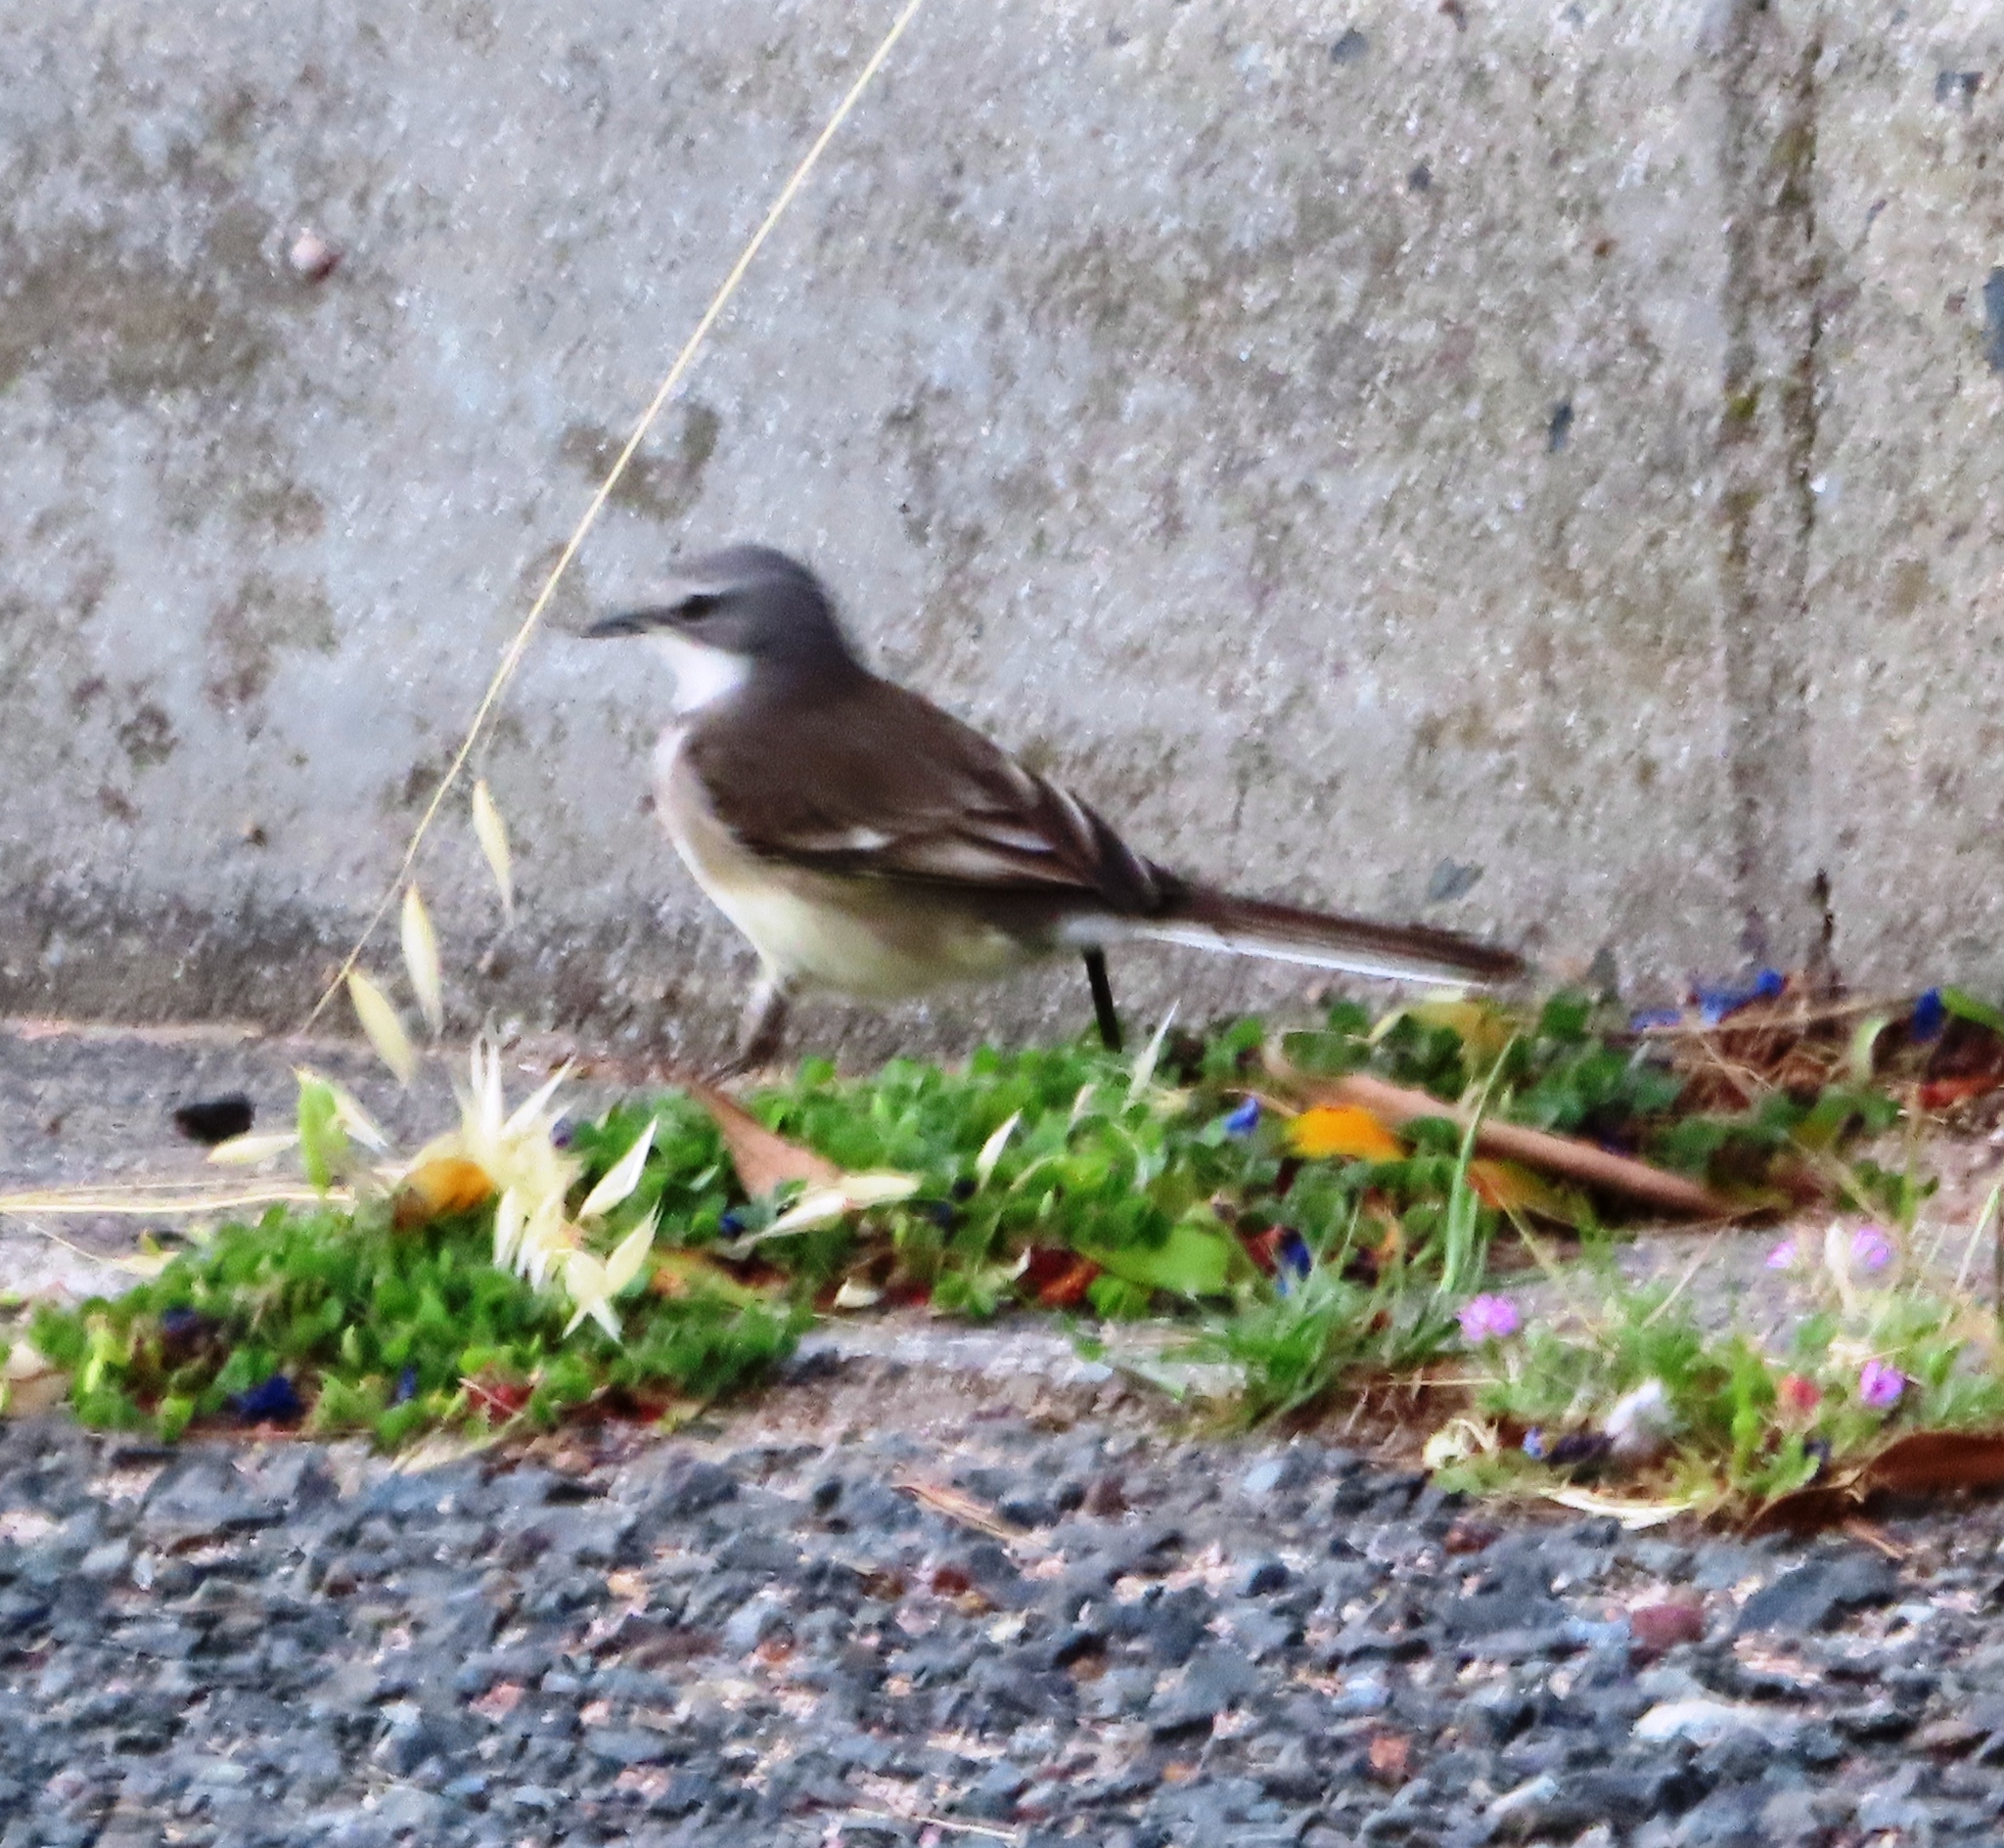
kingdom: Animalia
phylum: Chordata
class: Aves
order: Passeriformes
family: Motacillidae
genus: Motacilla
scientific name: Motacilla capensis
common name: Cape wagtail
